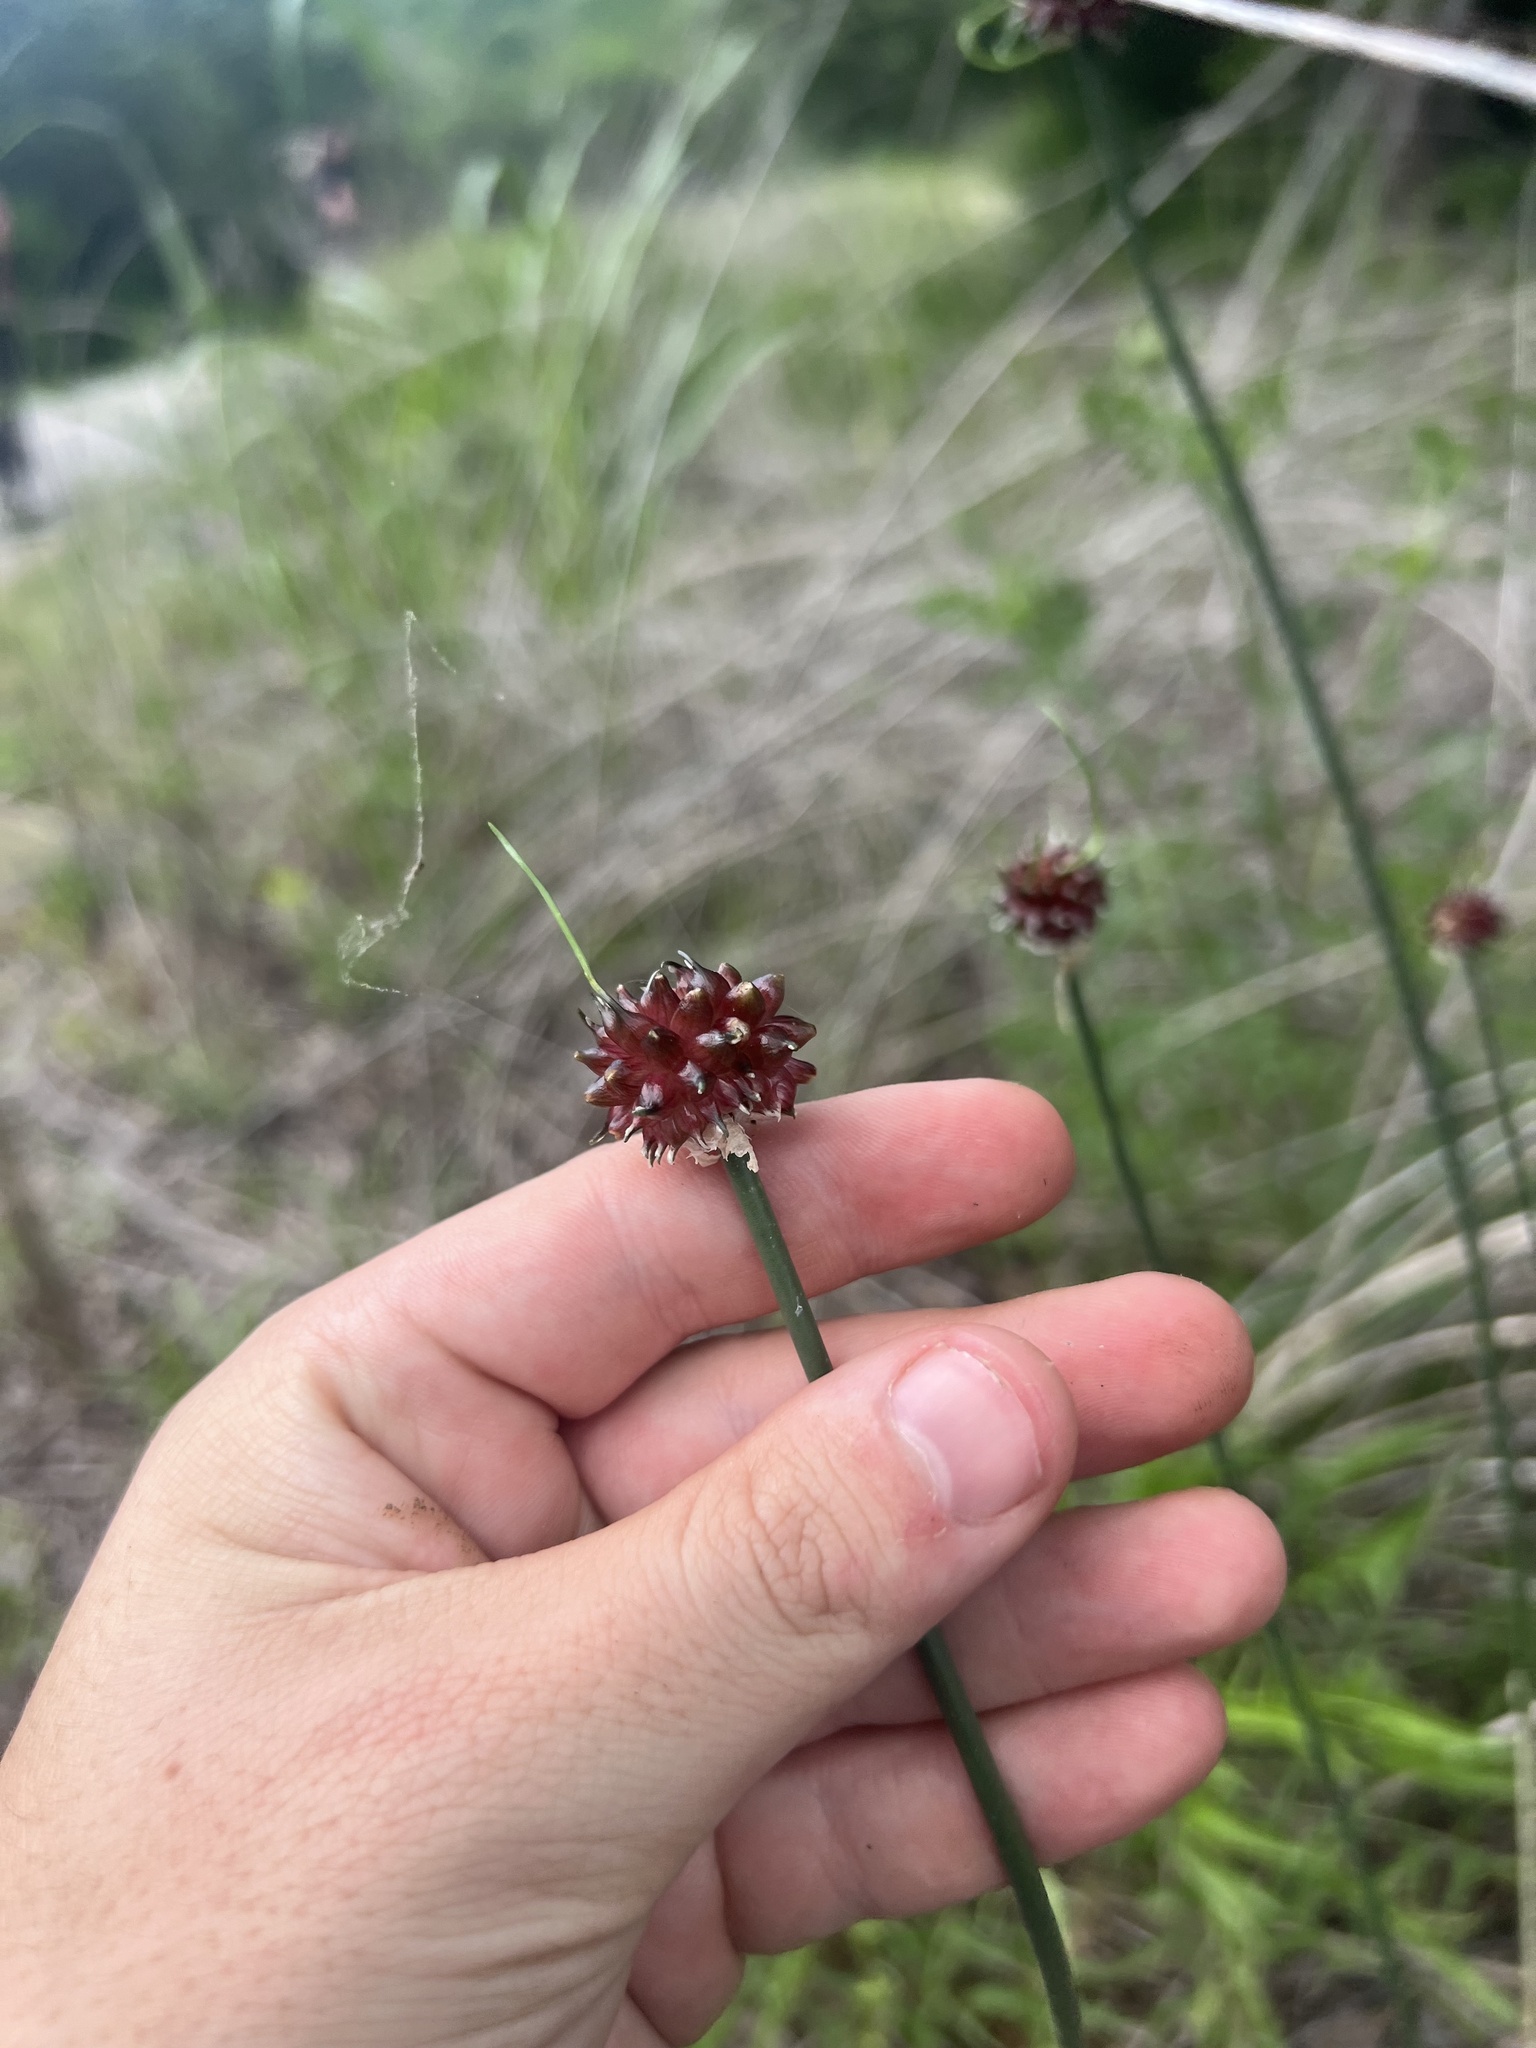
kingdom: Plantae
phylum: Tracheophyta
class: Liliopsida
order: Asparagales
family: Amaryllidaceae
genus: Allium
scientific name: Allium vineale
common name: Crow garlic
